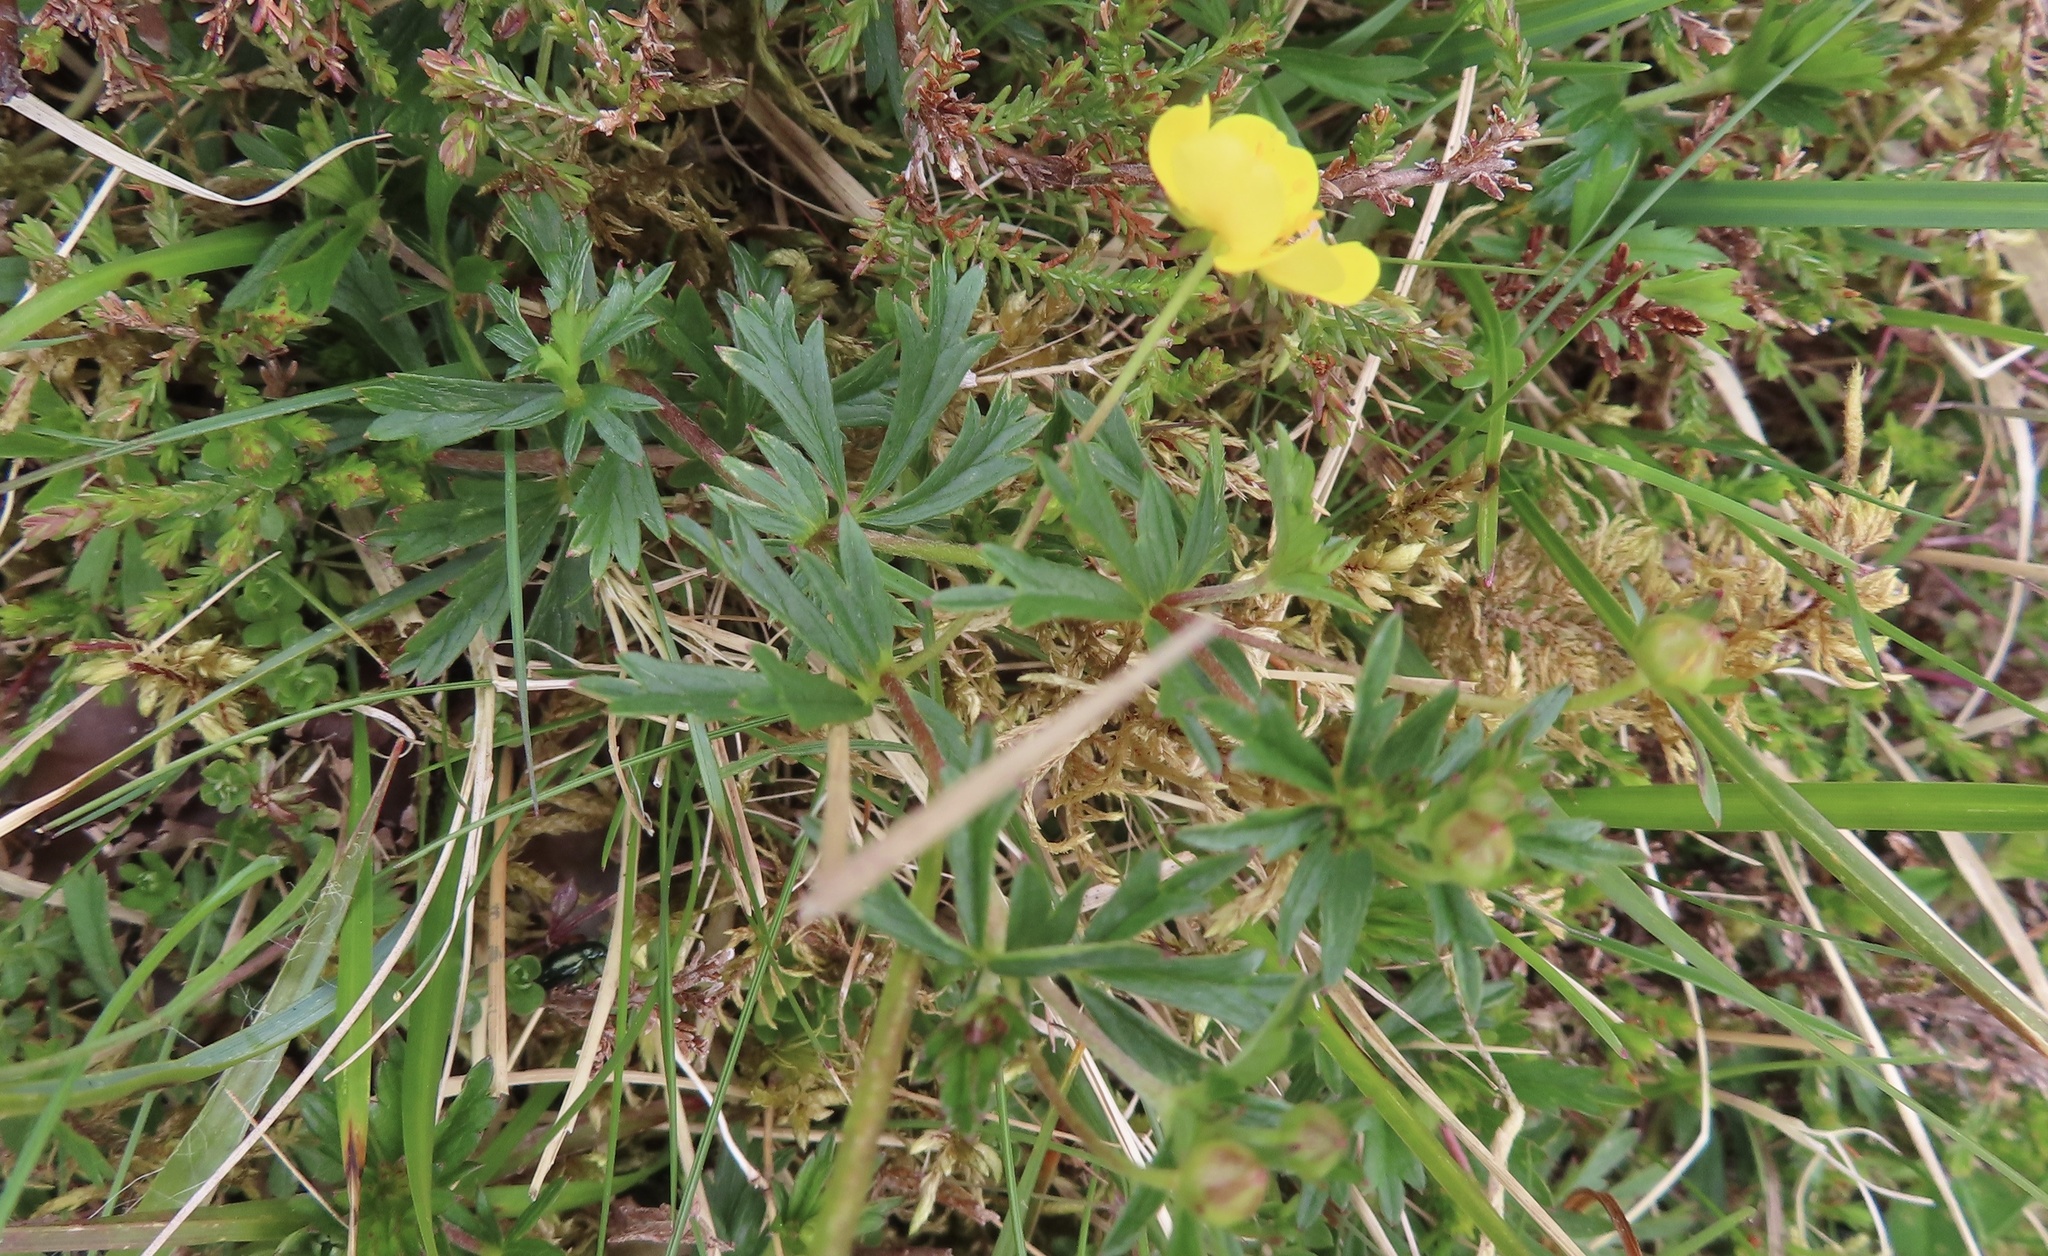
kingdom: Plantae
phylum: Tracheophyta
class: Magnoliopsida
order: Rosales
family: Rosaceae
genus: Potentilla
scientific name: Potentilla erecta
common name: Tormentil
